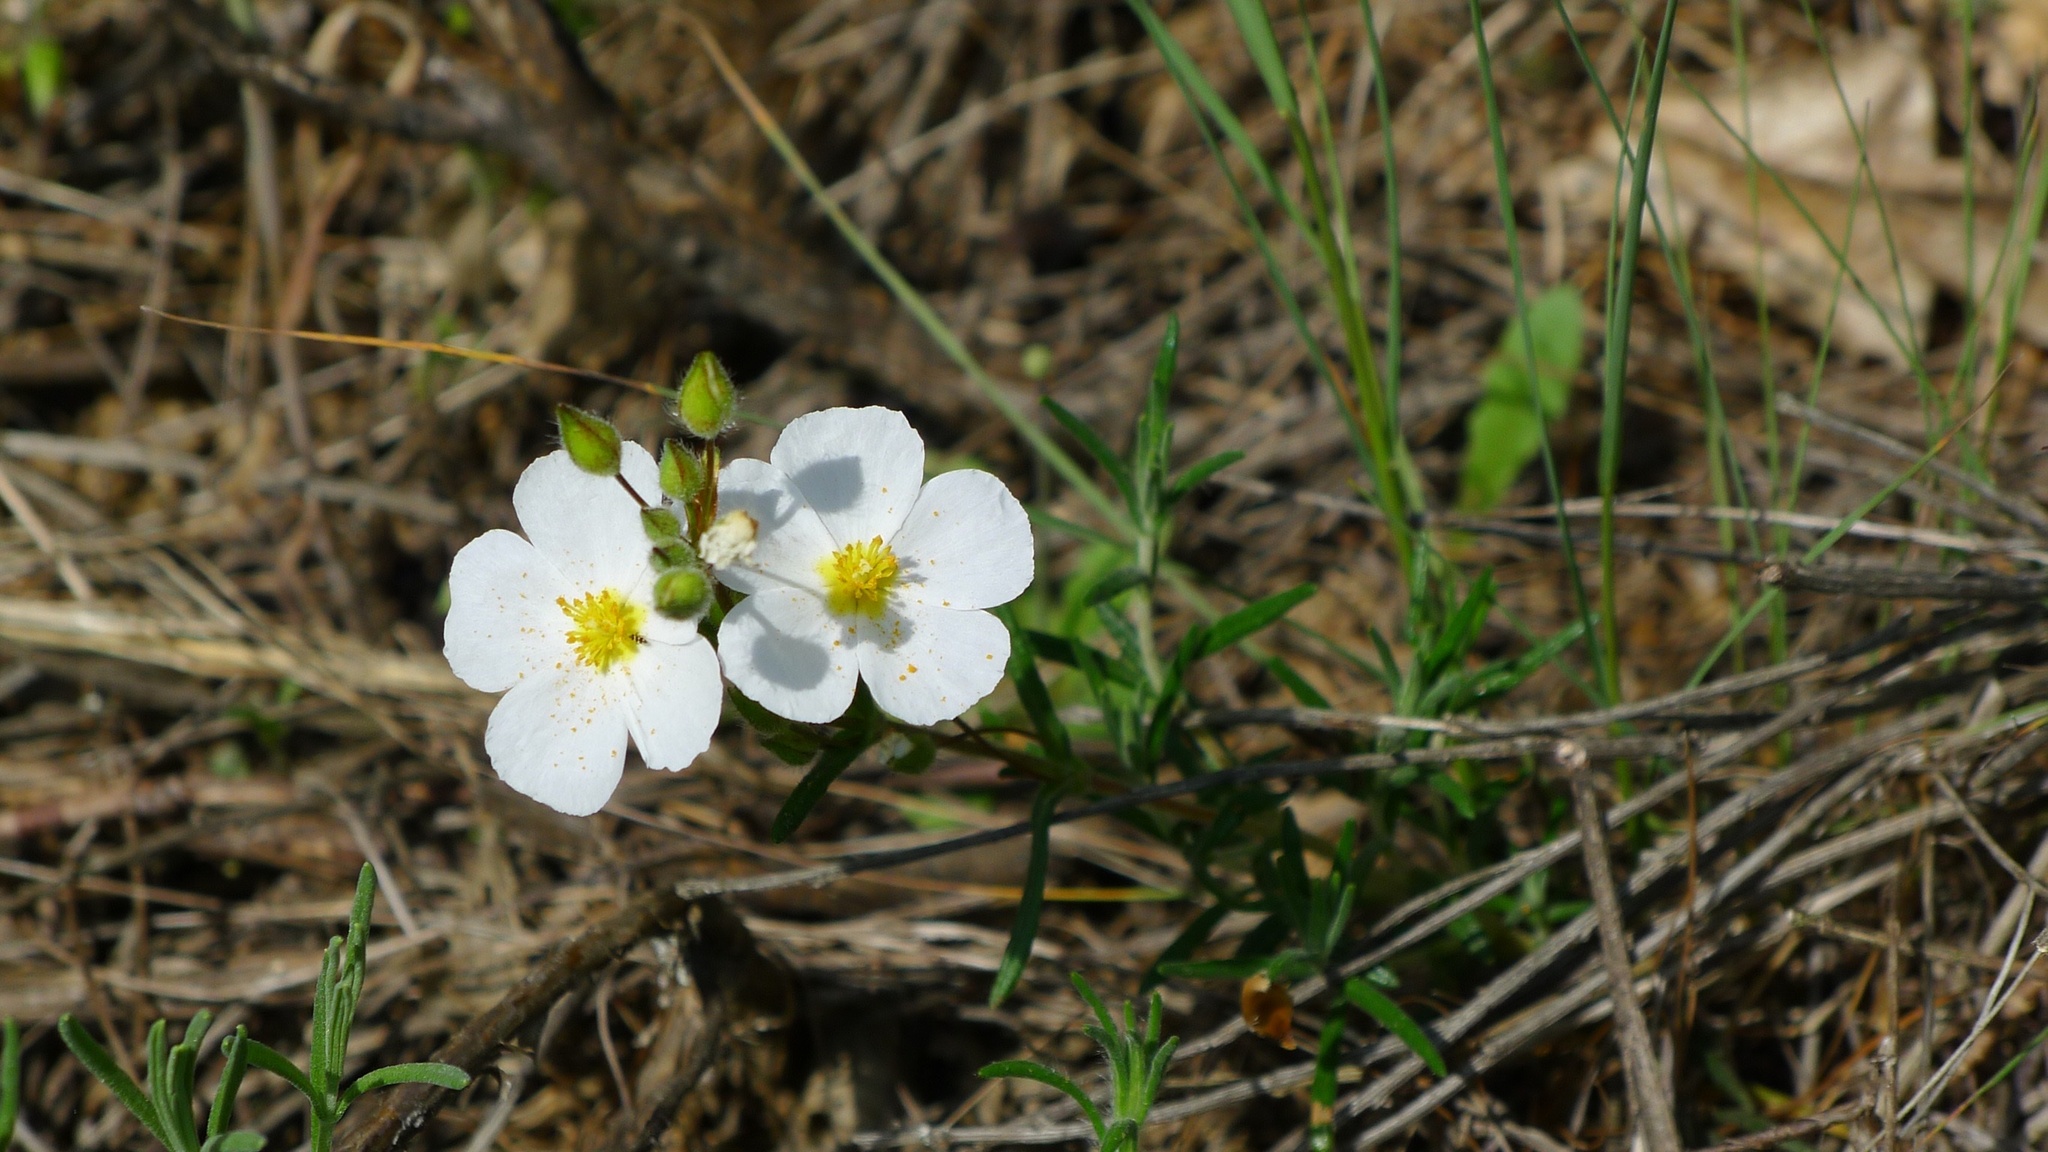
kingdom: Plantae
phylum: Tracheophyta
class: Magnoliopsida
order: Malvales
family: Cistaceae
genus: Halimium
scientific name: Halimium umbellatum
